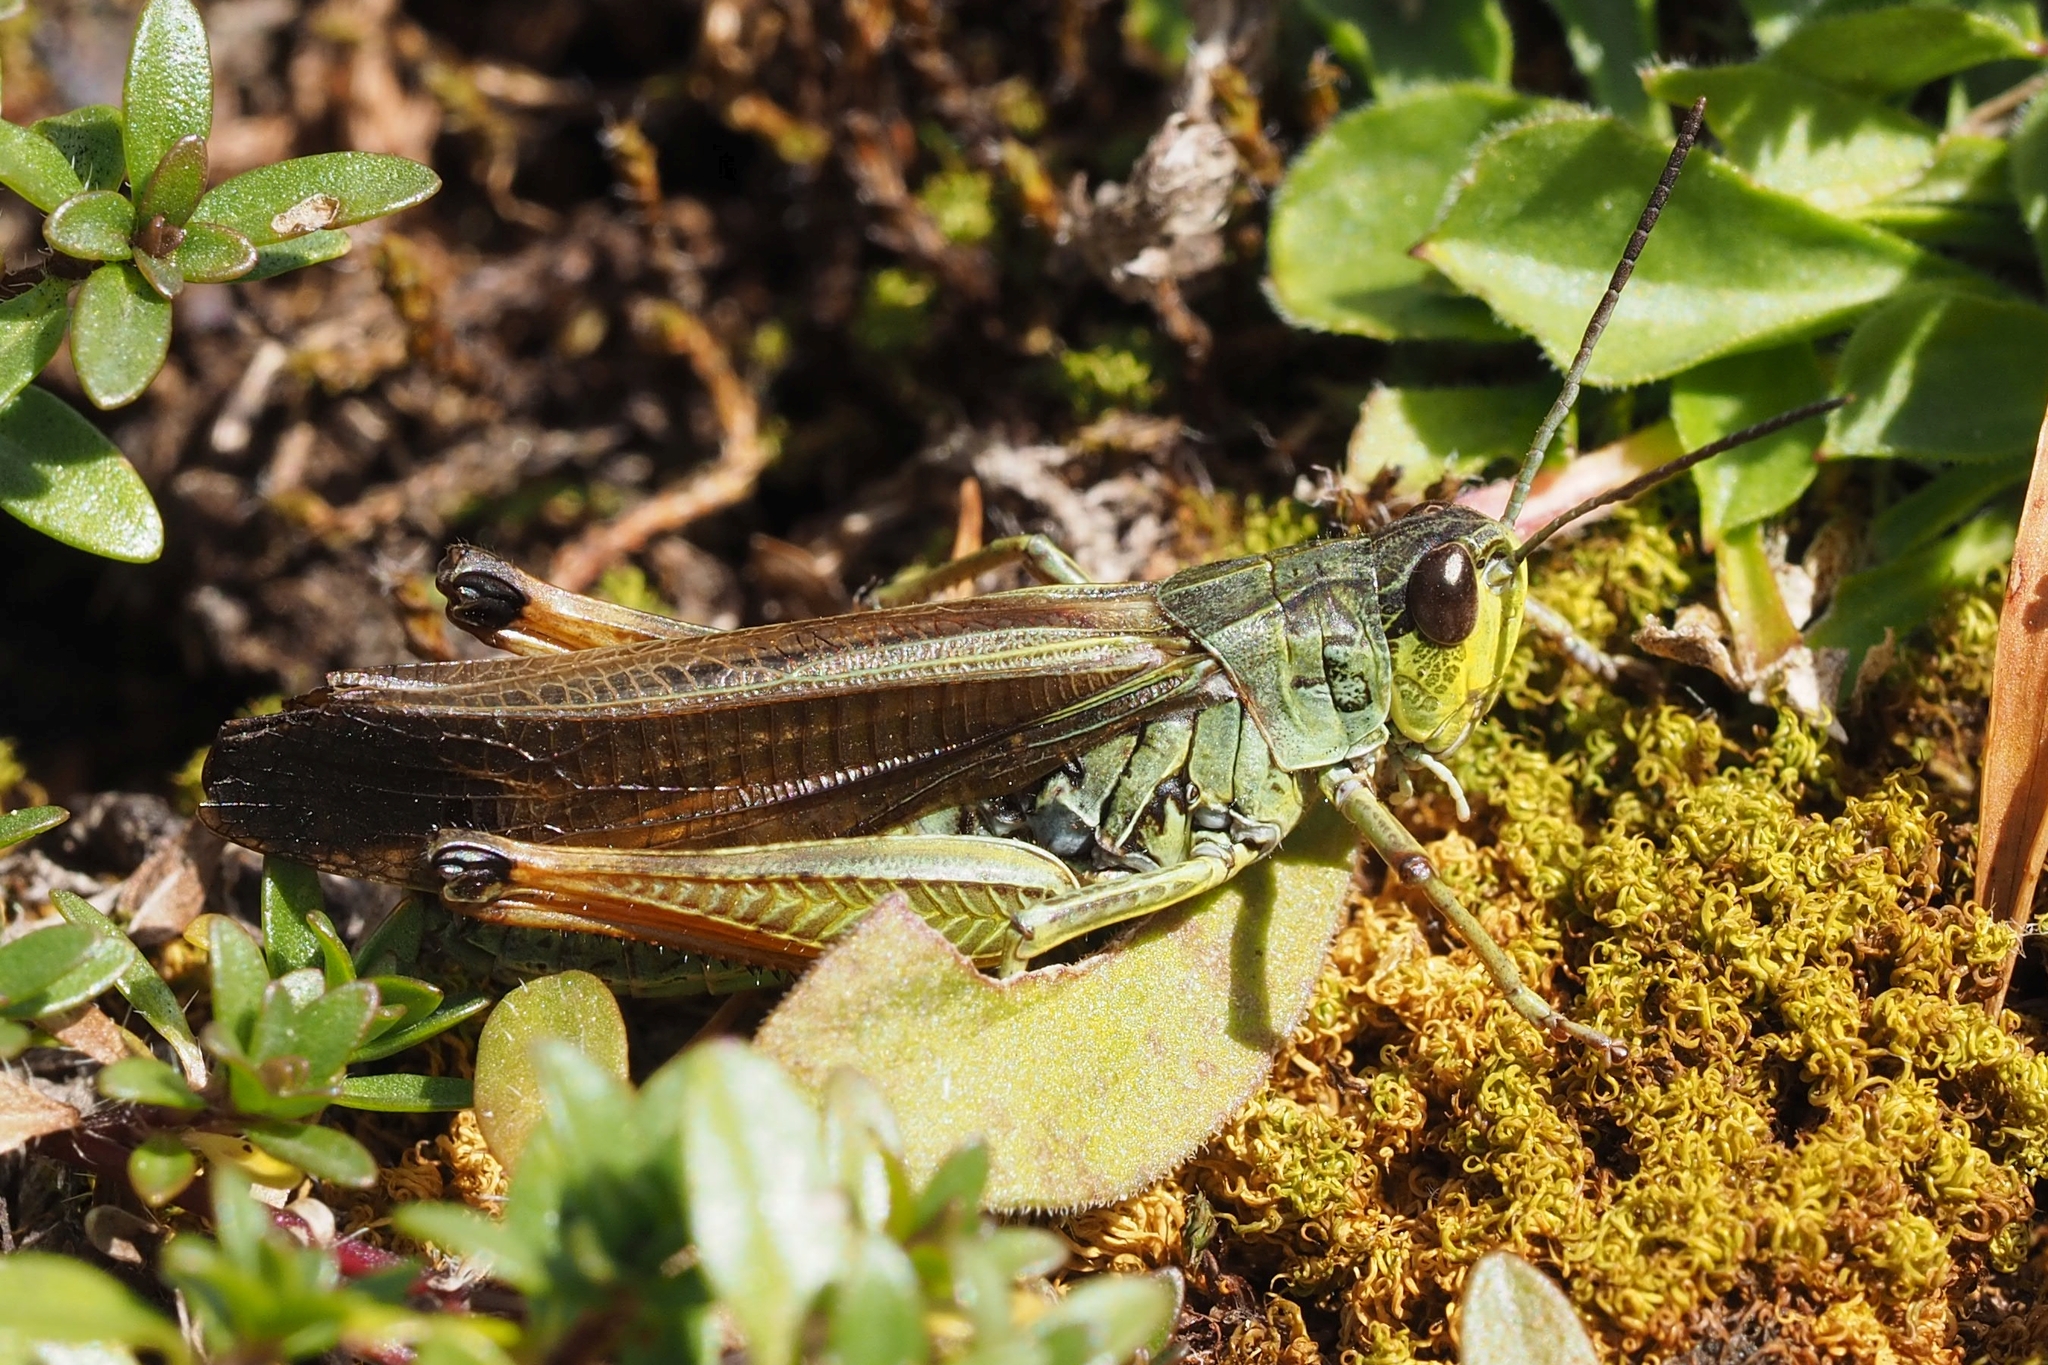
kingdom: Animalia
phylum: Arthropoda
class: Insecta
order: Orthoptera
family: Acrididae
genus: Stauroderus
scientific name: Stauroderus scalaris
